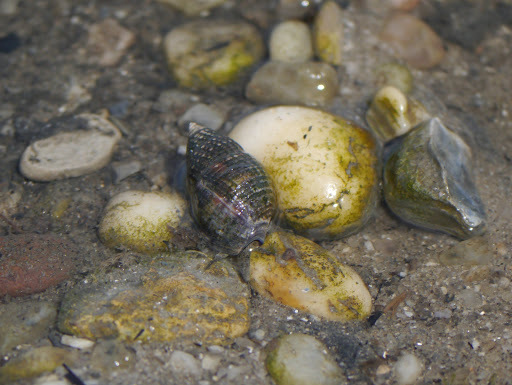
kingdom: Animalia
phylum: Mollusca
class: Gastropoda
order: Neogastropoda
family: Nassariidae
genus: Ilyanassa
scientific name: Ilyanassa obsoleta
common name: Eastern mudsnail
